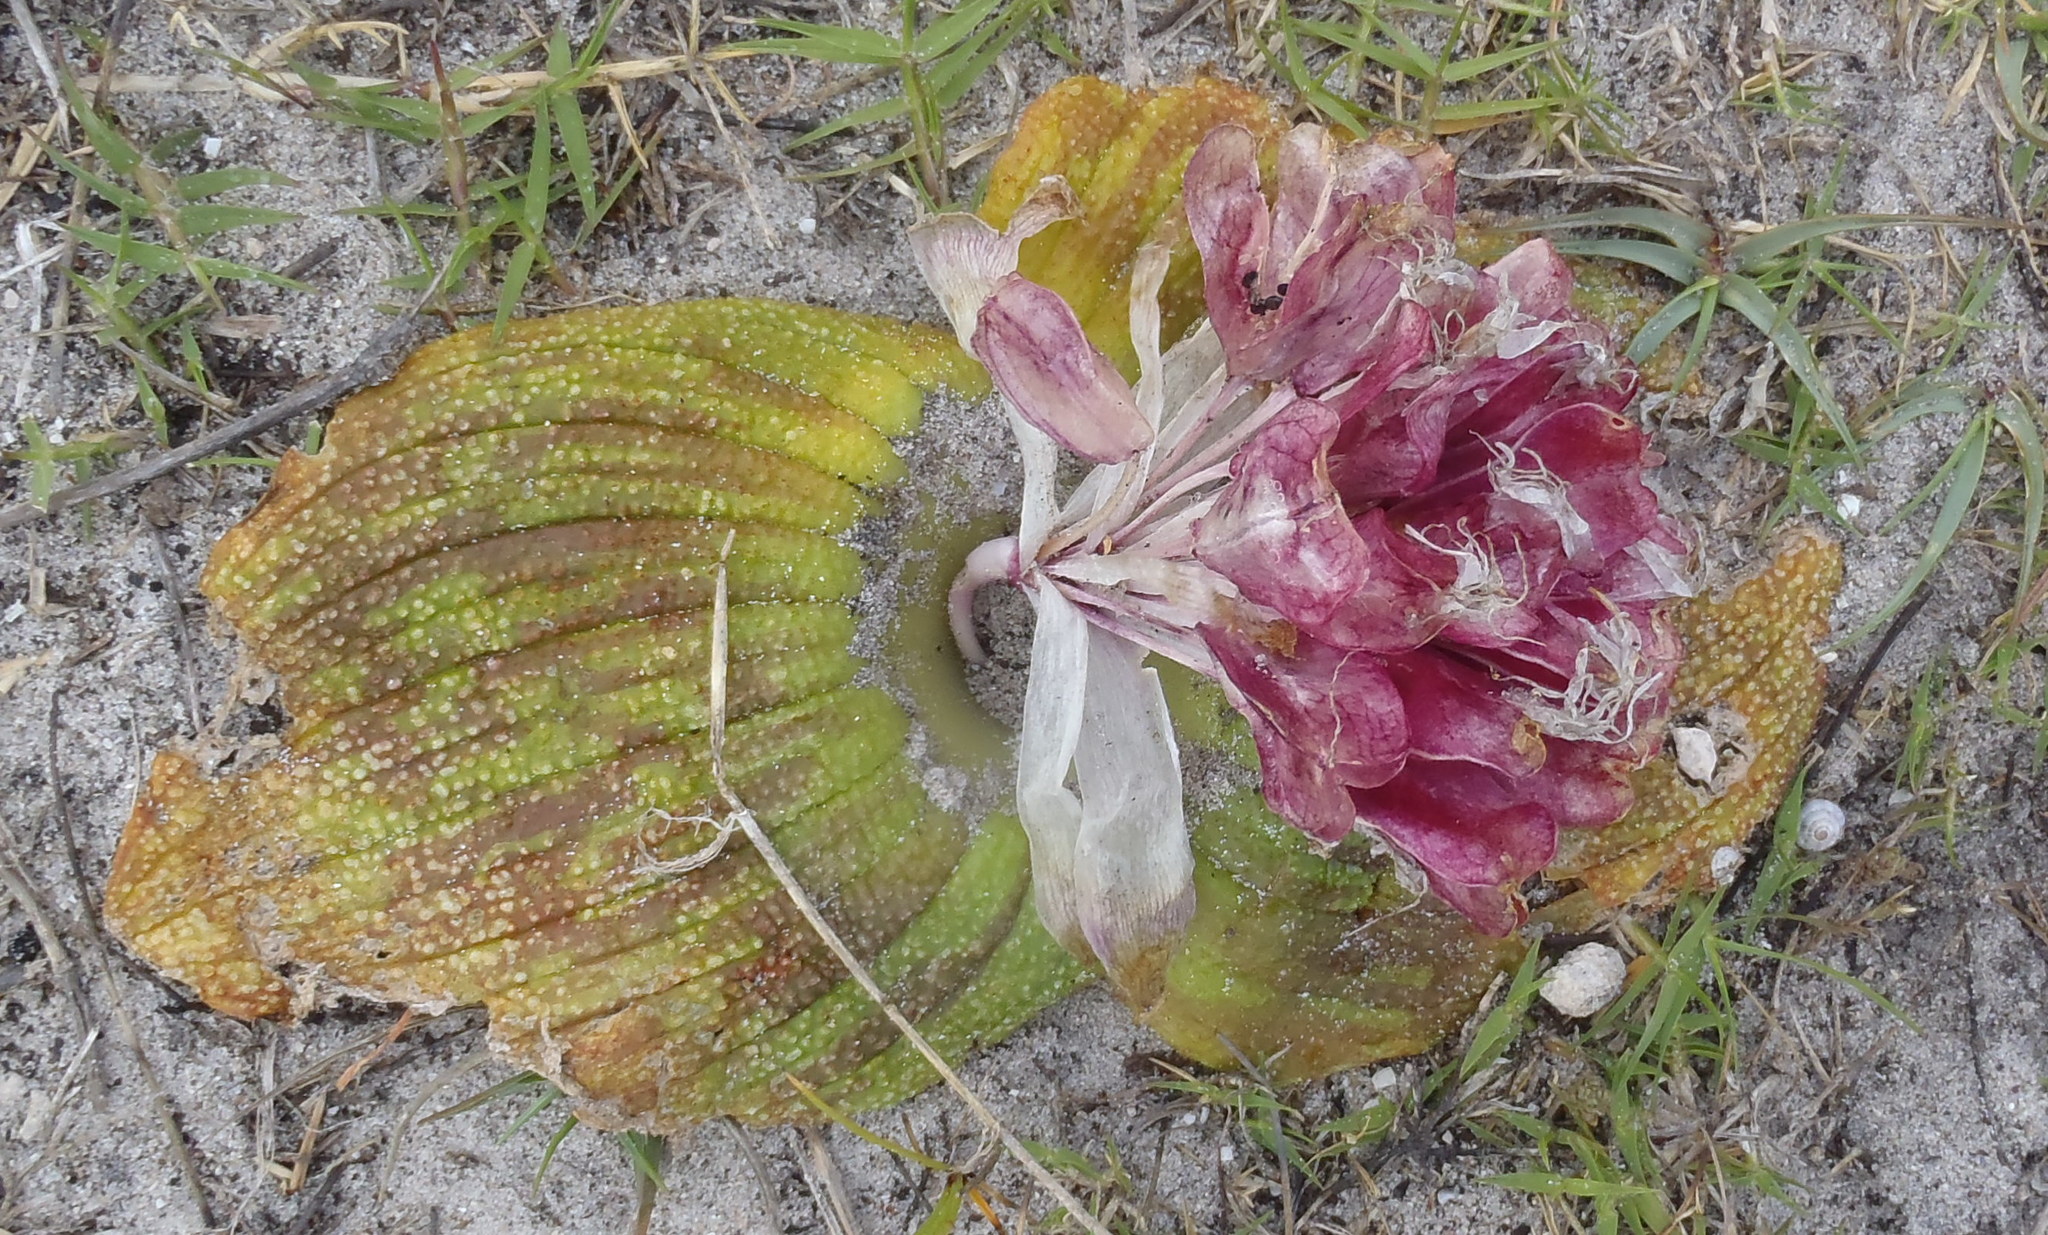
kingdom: Plantae
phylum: Tracheophyta
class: Liliopsida
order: Asparagales
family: Asparagaceae
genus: Massonia
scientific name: Massonia pustulata
